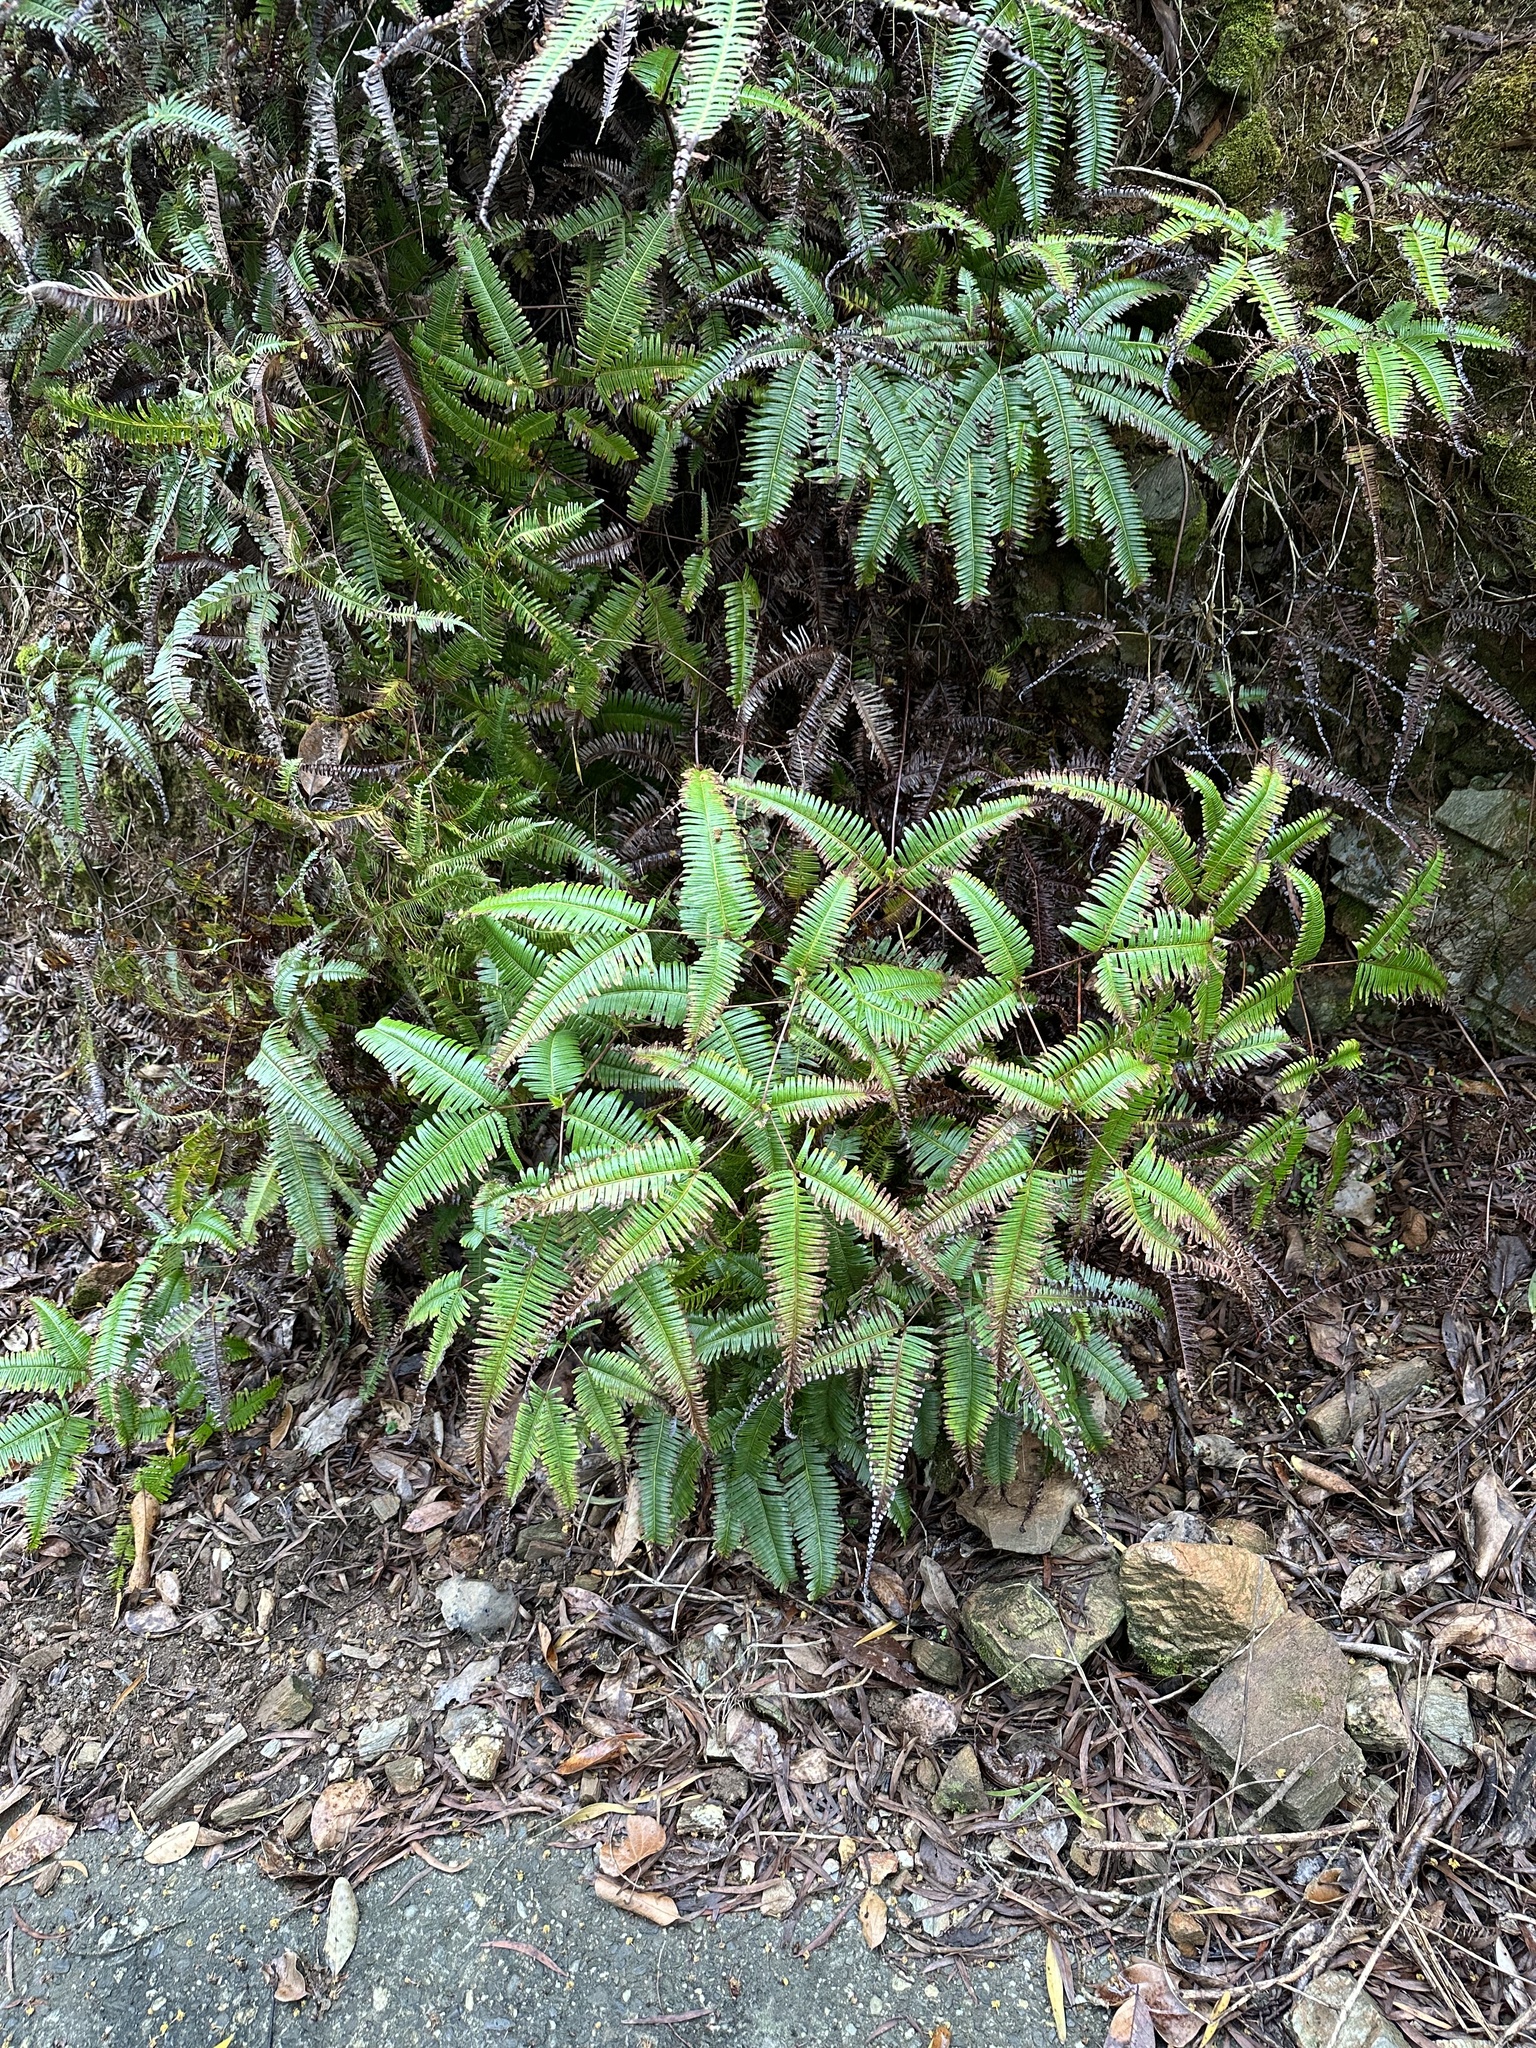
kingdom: Plantae
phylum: Tracheophyta
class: Polypodiopsida
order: Gleicheniales
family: Gleicheniaceae
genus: Dicranopteris
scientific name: Dicranopteris linearis
